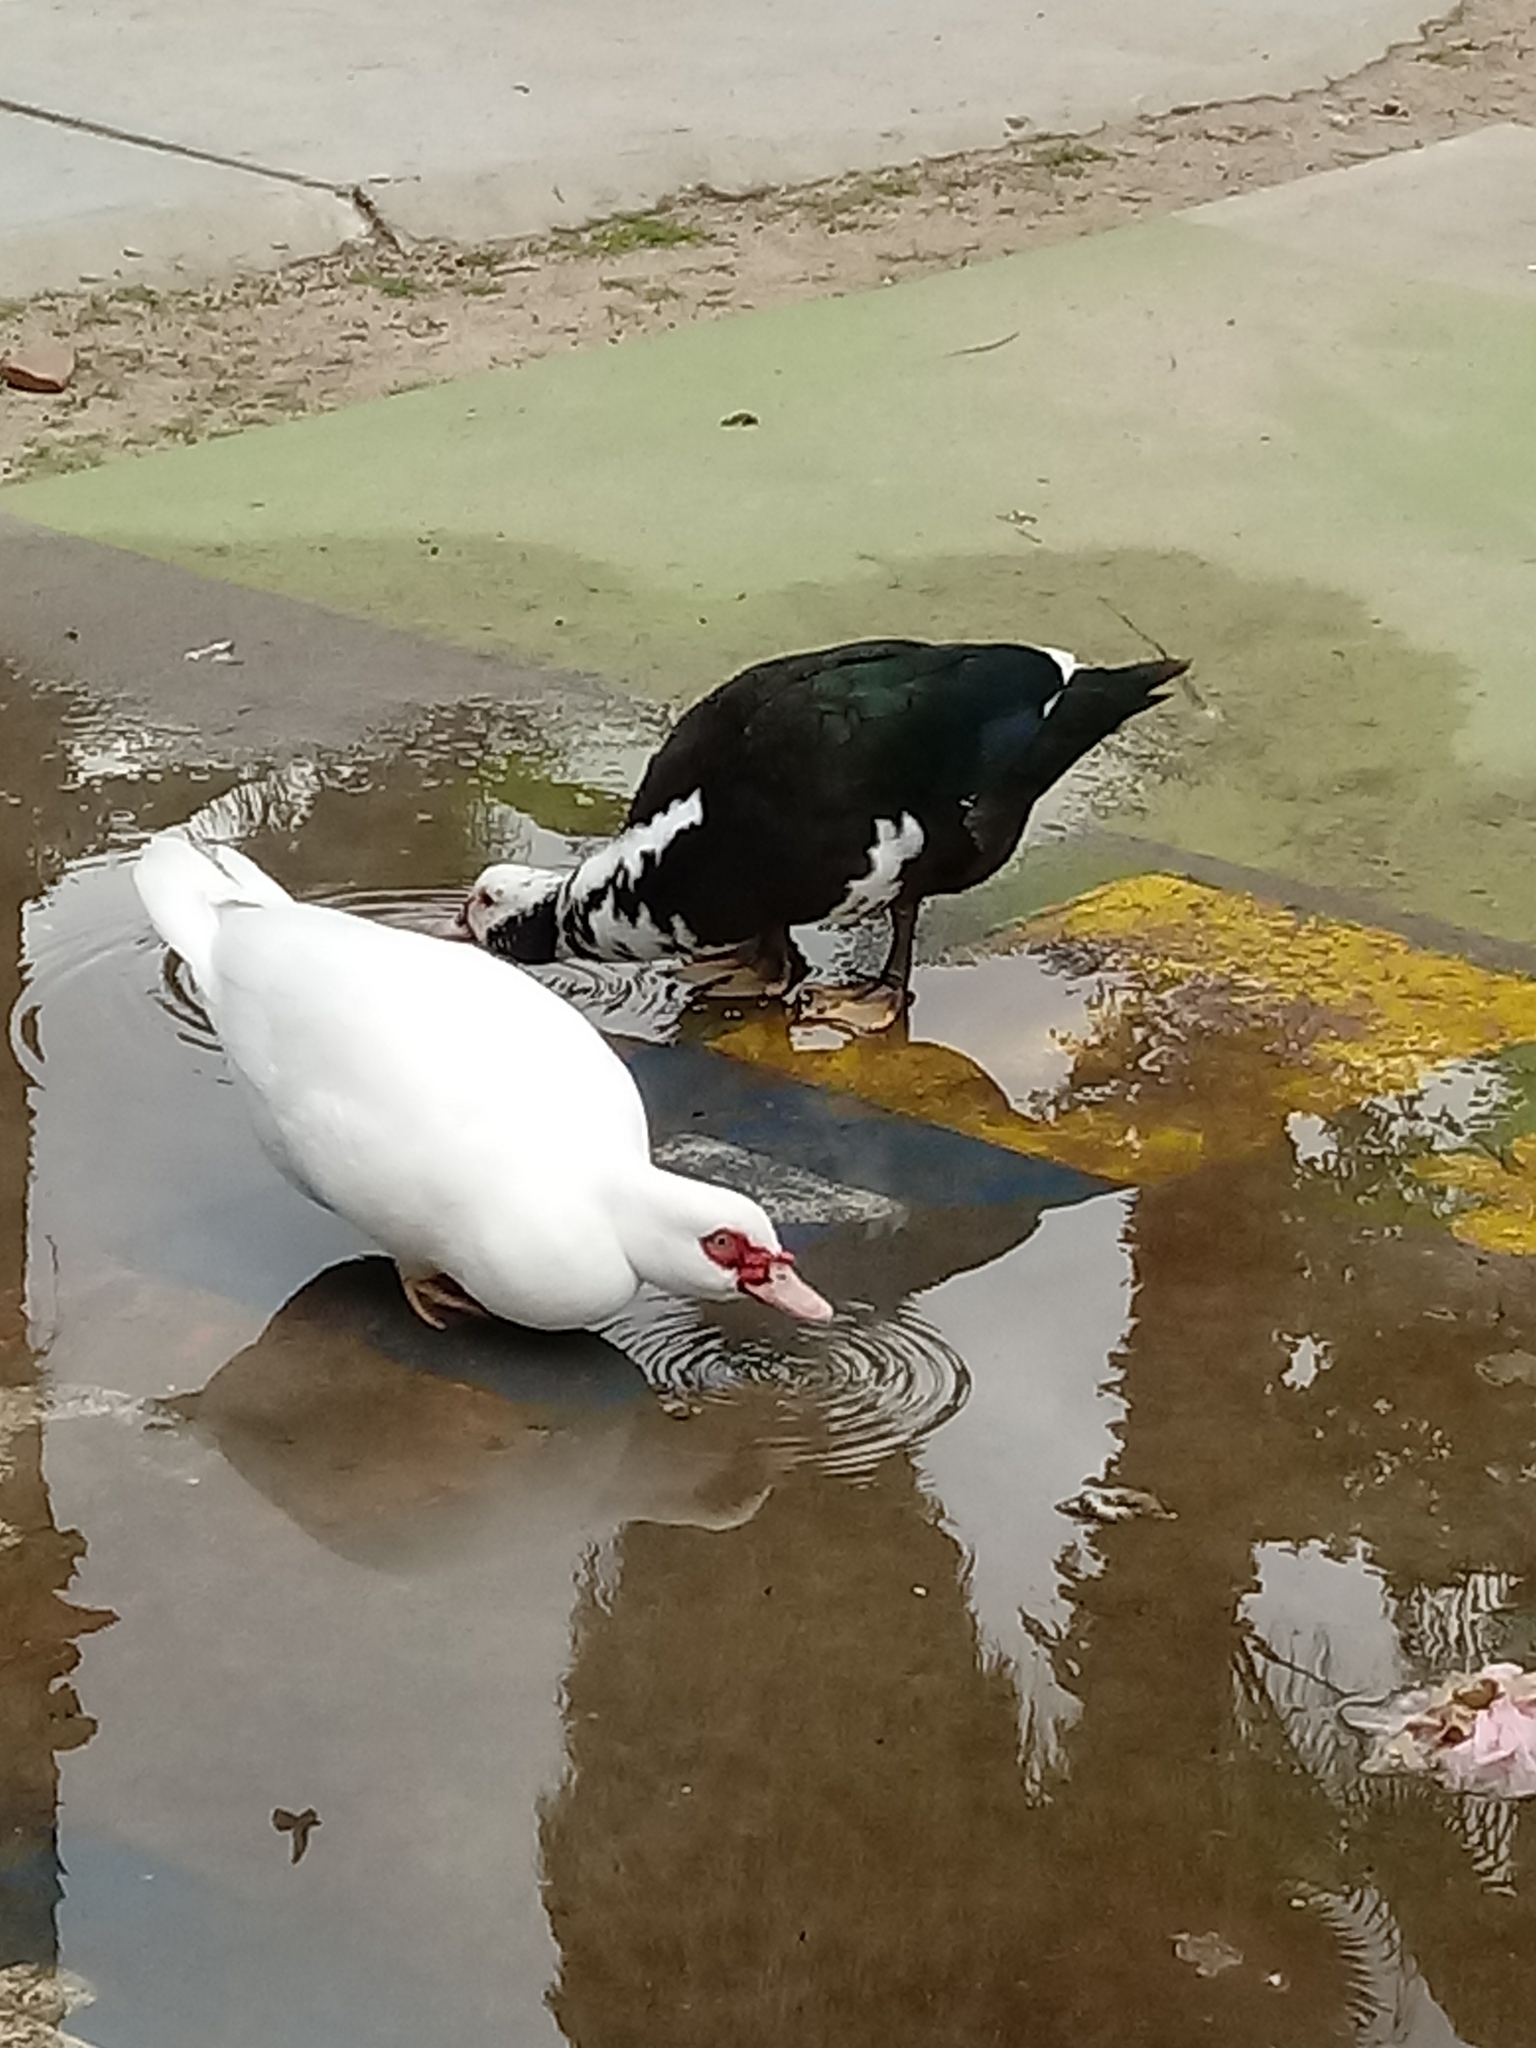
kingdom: Animalia
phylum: Chordata
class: Aves
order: Anseriformes
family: Anatidae
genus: Cairina
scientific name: Cairina moschata
